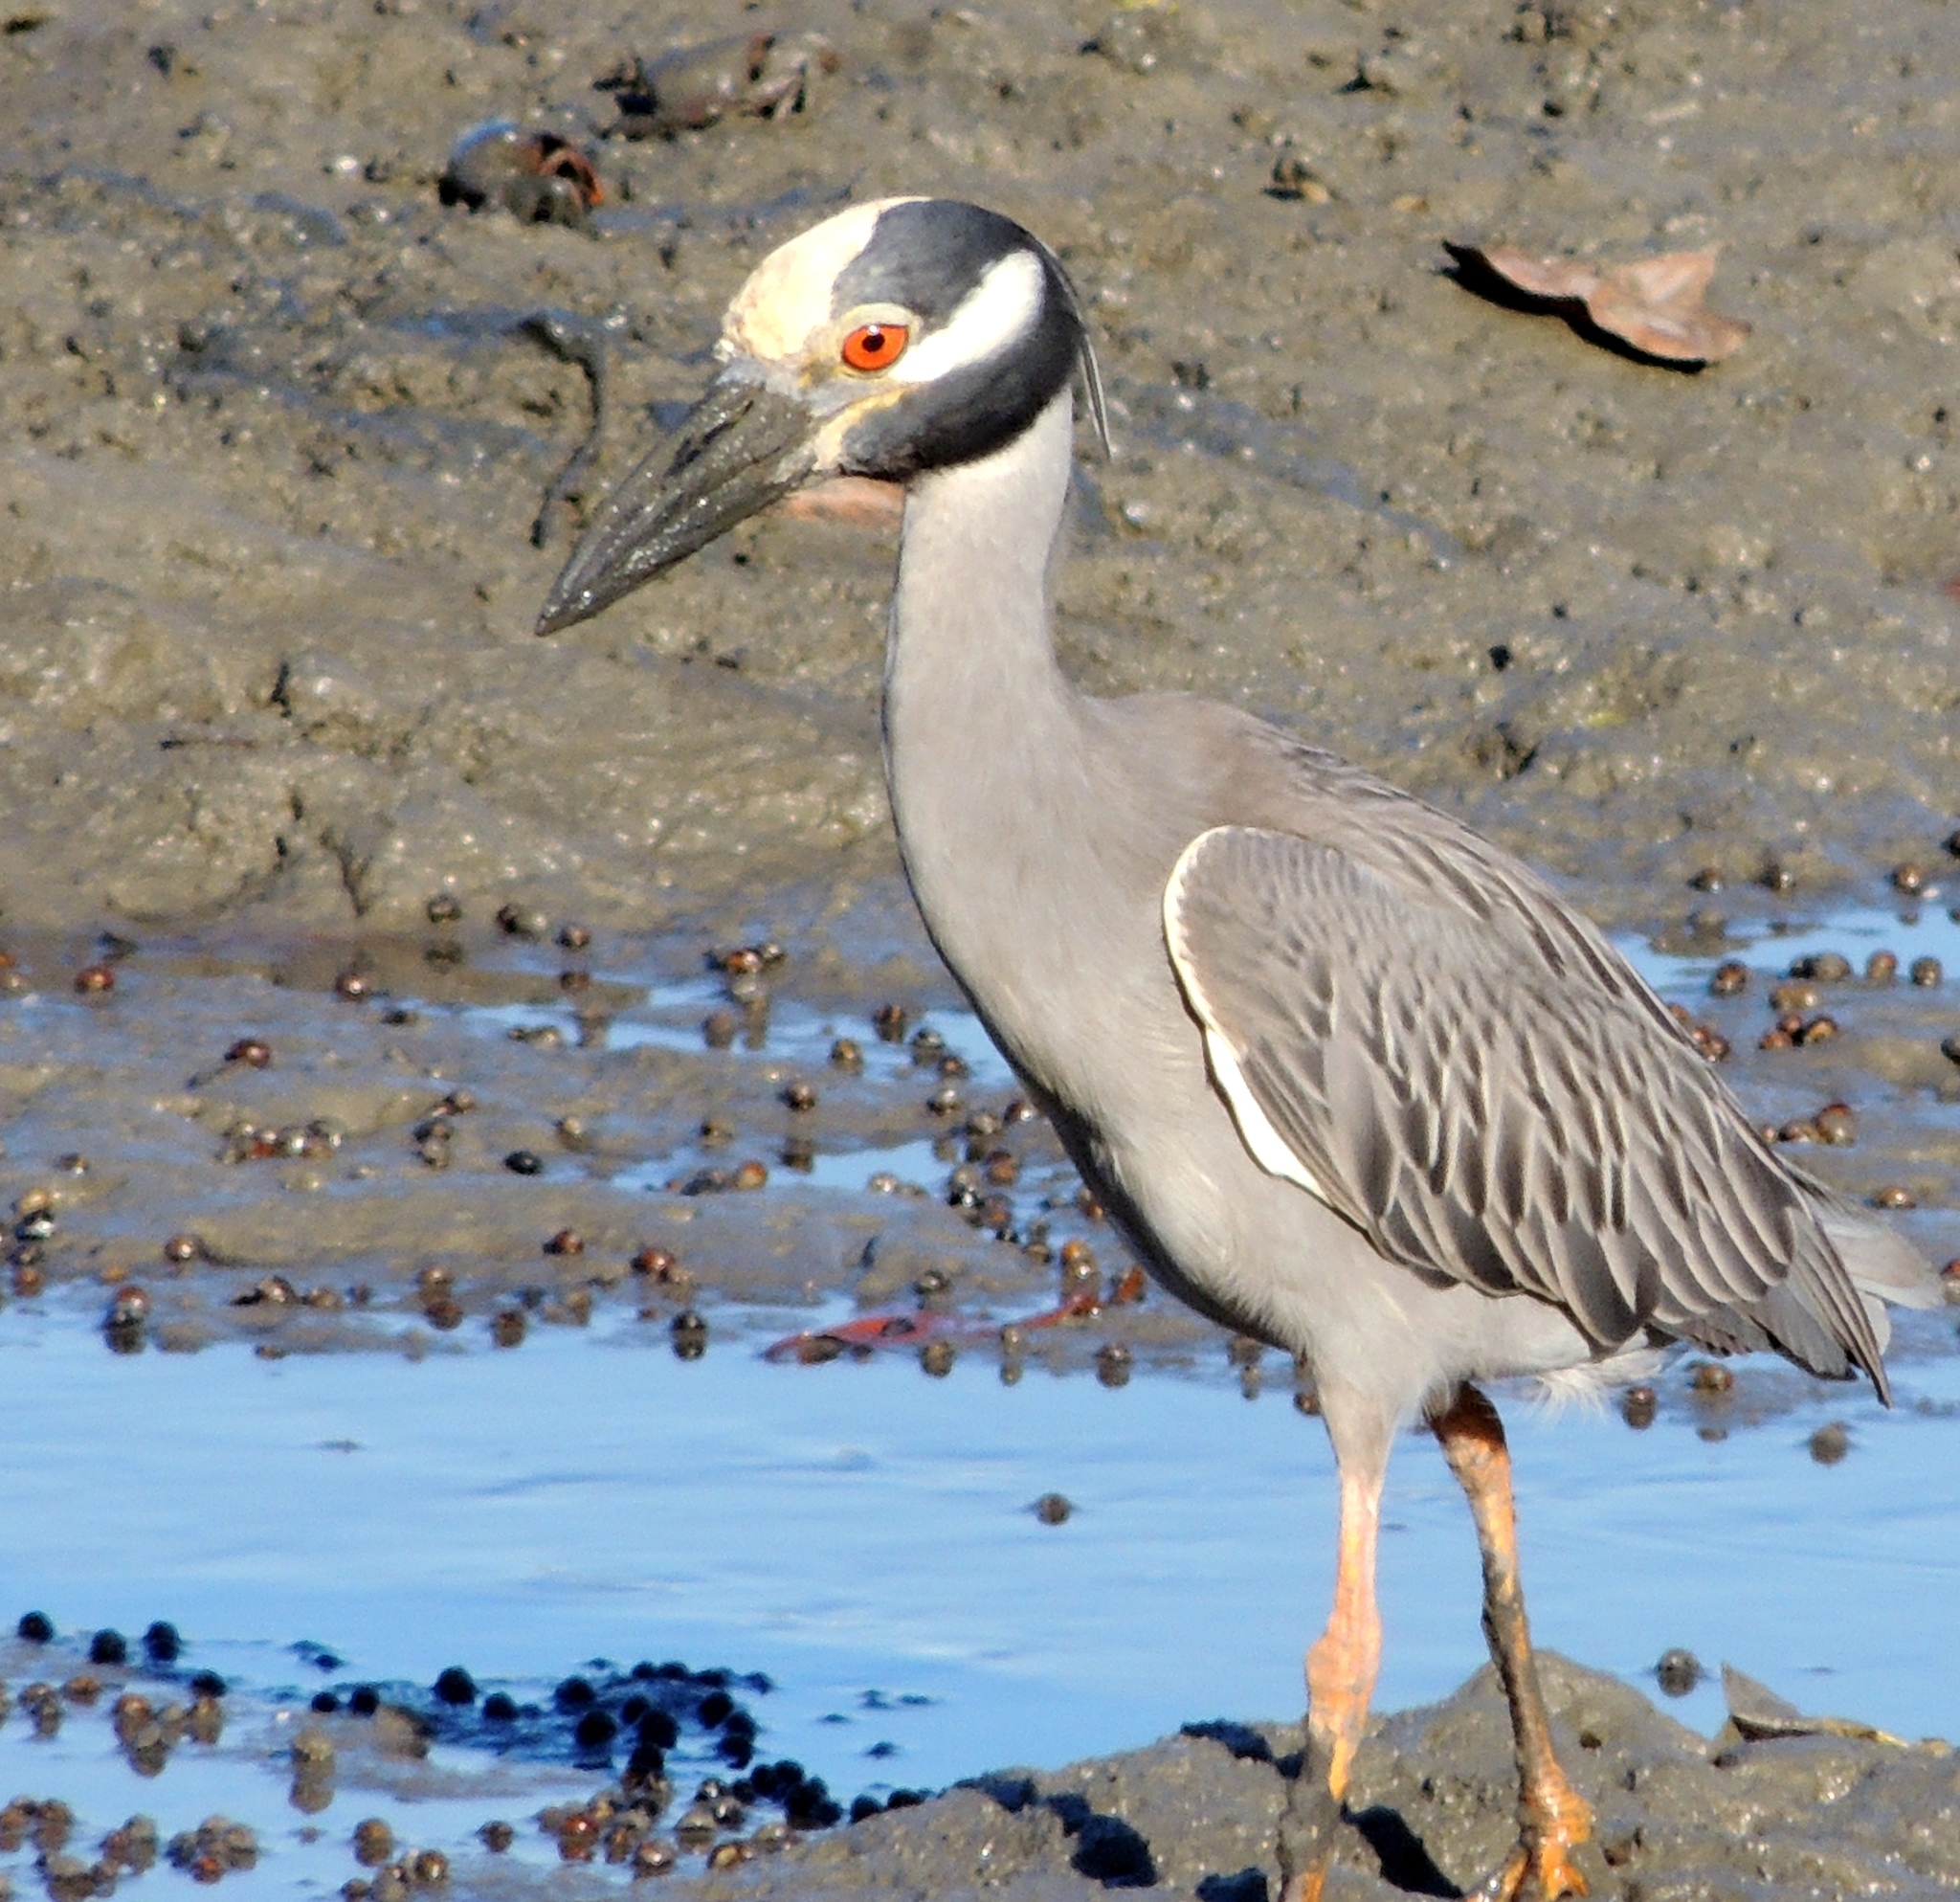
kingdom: Animalia
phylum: Chordata
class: Aves
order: Pelecaniformes
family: Ardeidae
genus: Nyctanassa
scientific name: Nyctanassa violacea
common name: Yellow-crowned night heron
